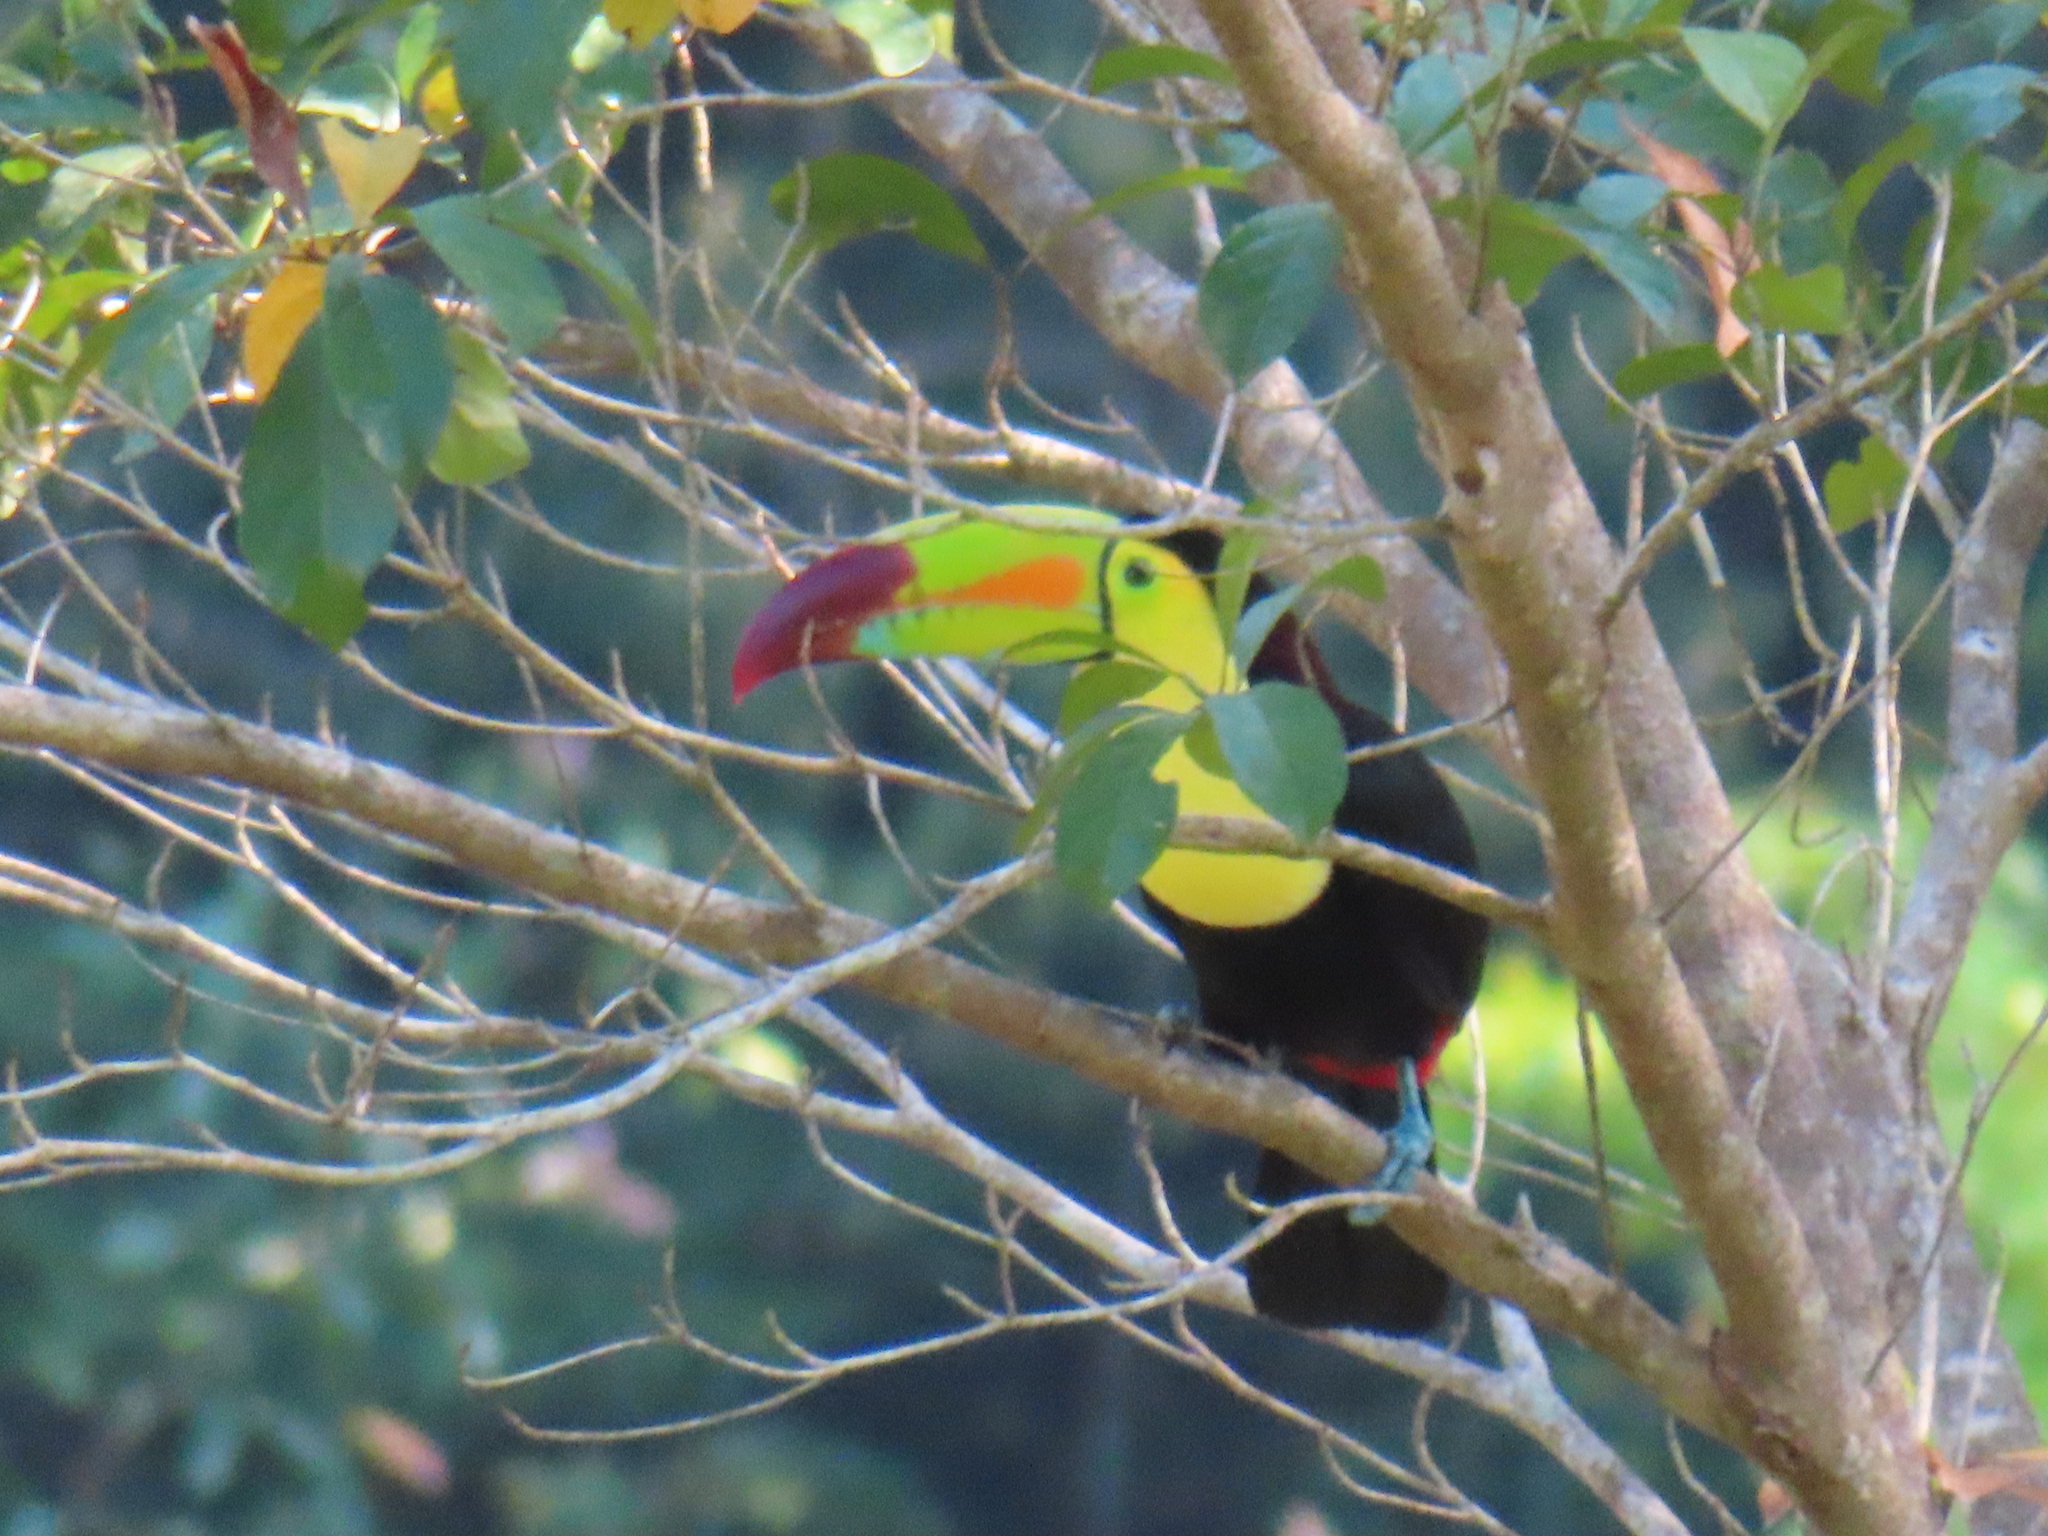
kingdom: Animalia
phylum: Chordata
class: Aves
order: Piciformes
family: Ramphastidae
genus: Ramphastos
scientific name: Ramphastos sulfuratus
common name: Keel-billed toucan
